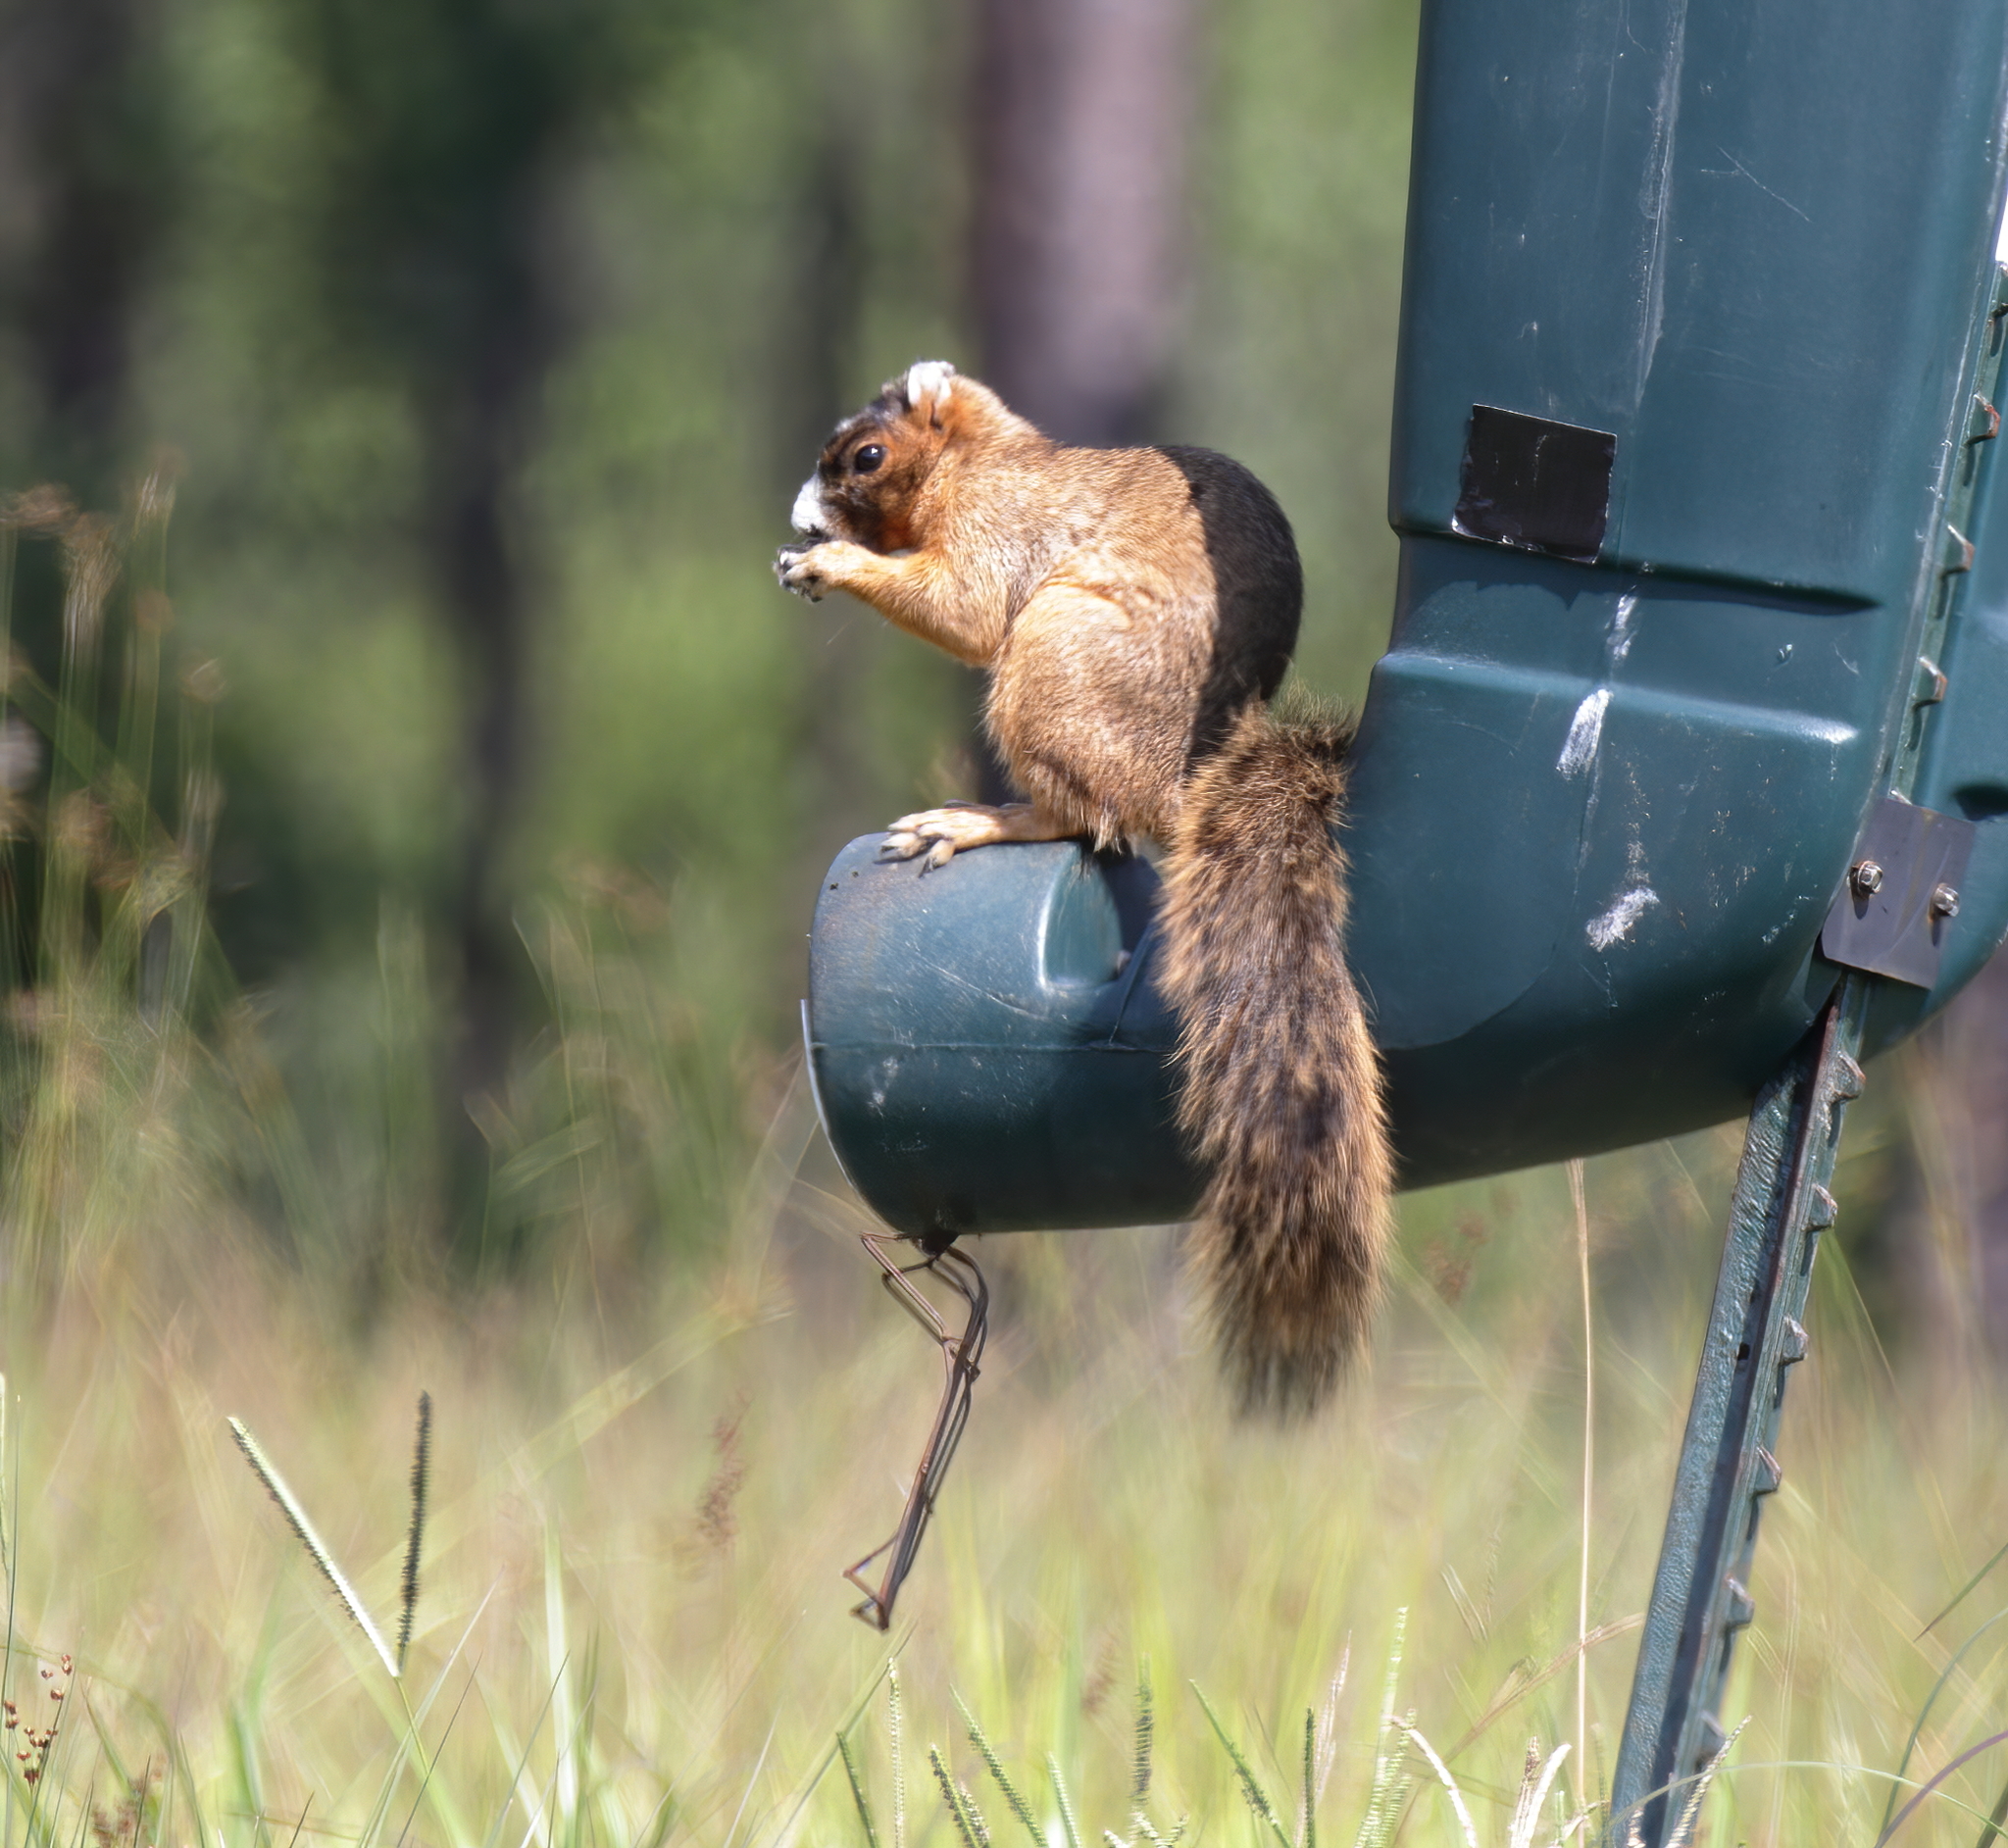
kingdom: Animalia
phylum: Chordata
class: Mammalia
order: Rodentia
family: Sciuridae
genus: Sciurus
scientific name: Sciurus niger
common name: Fox squirrel
